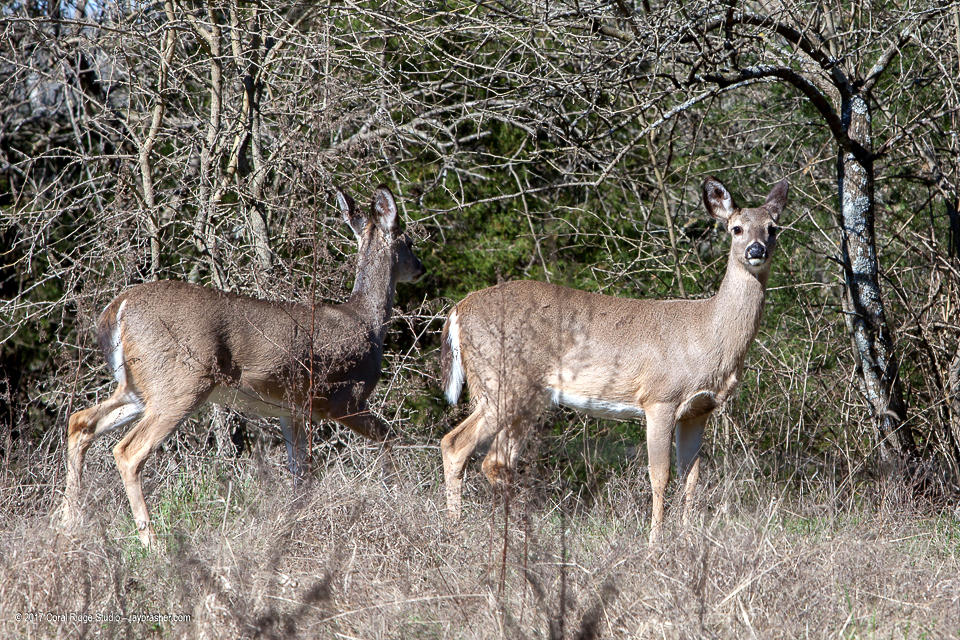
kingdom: Animalia
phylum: Chordata
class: Mammalia
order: Artiodactyla
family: Cervidae
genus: Odocoileus
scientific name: Odocoileus virginianus
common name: White-tailed deer
